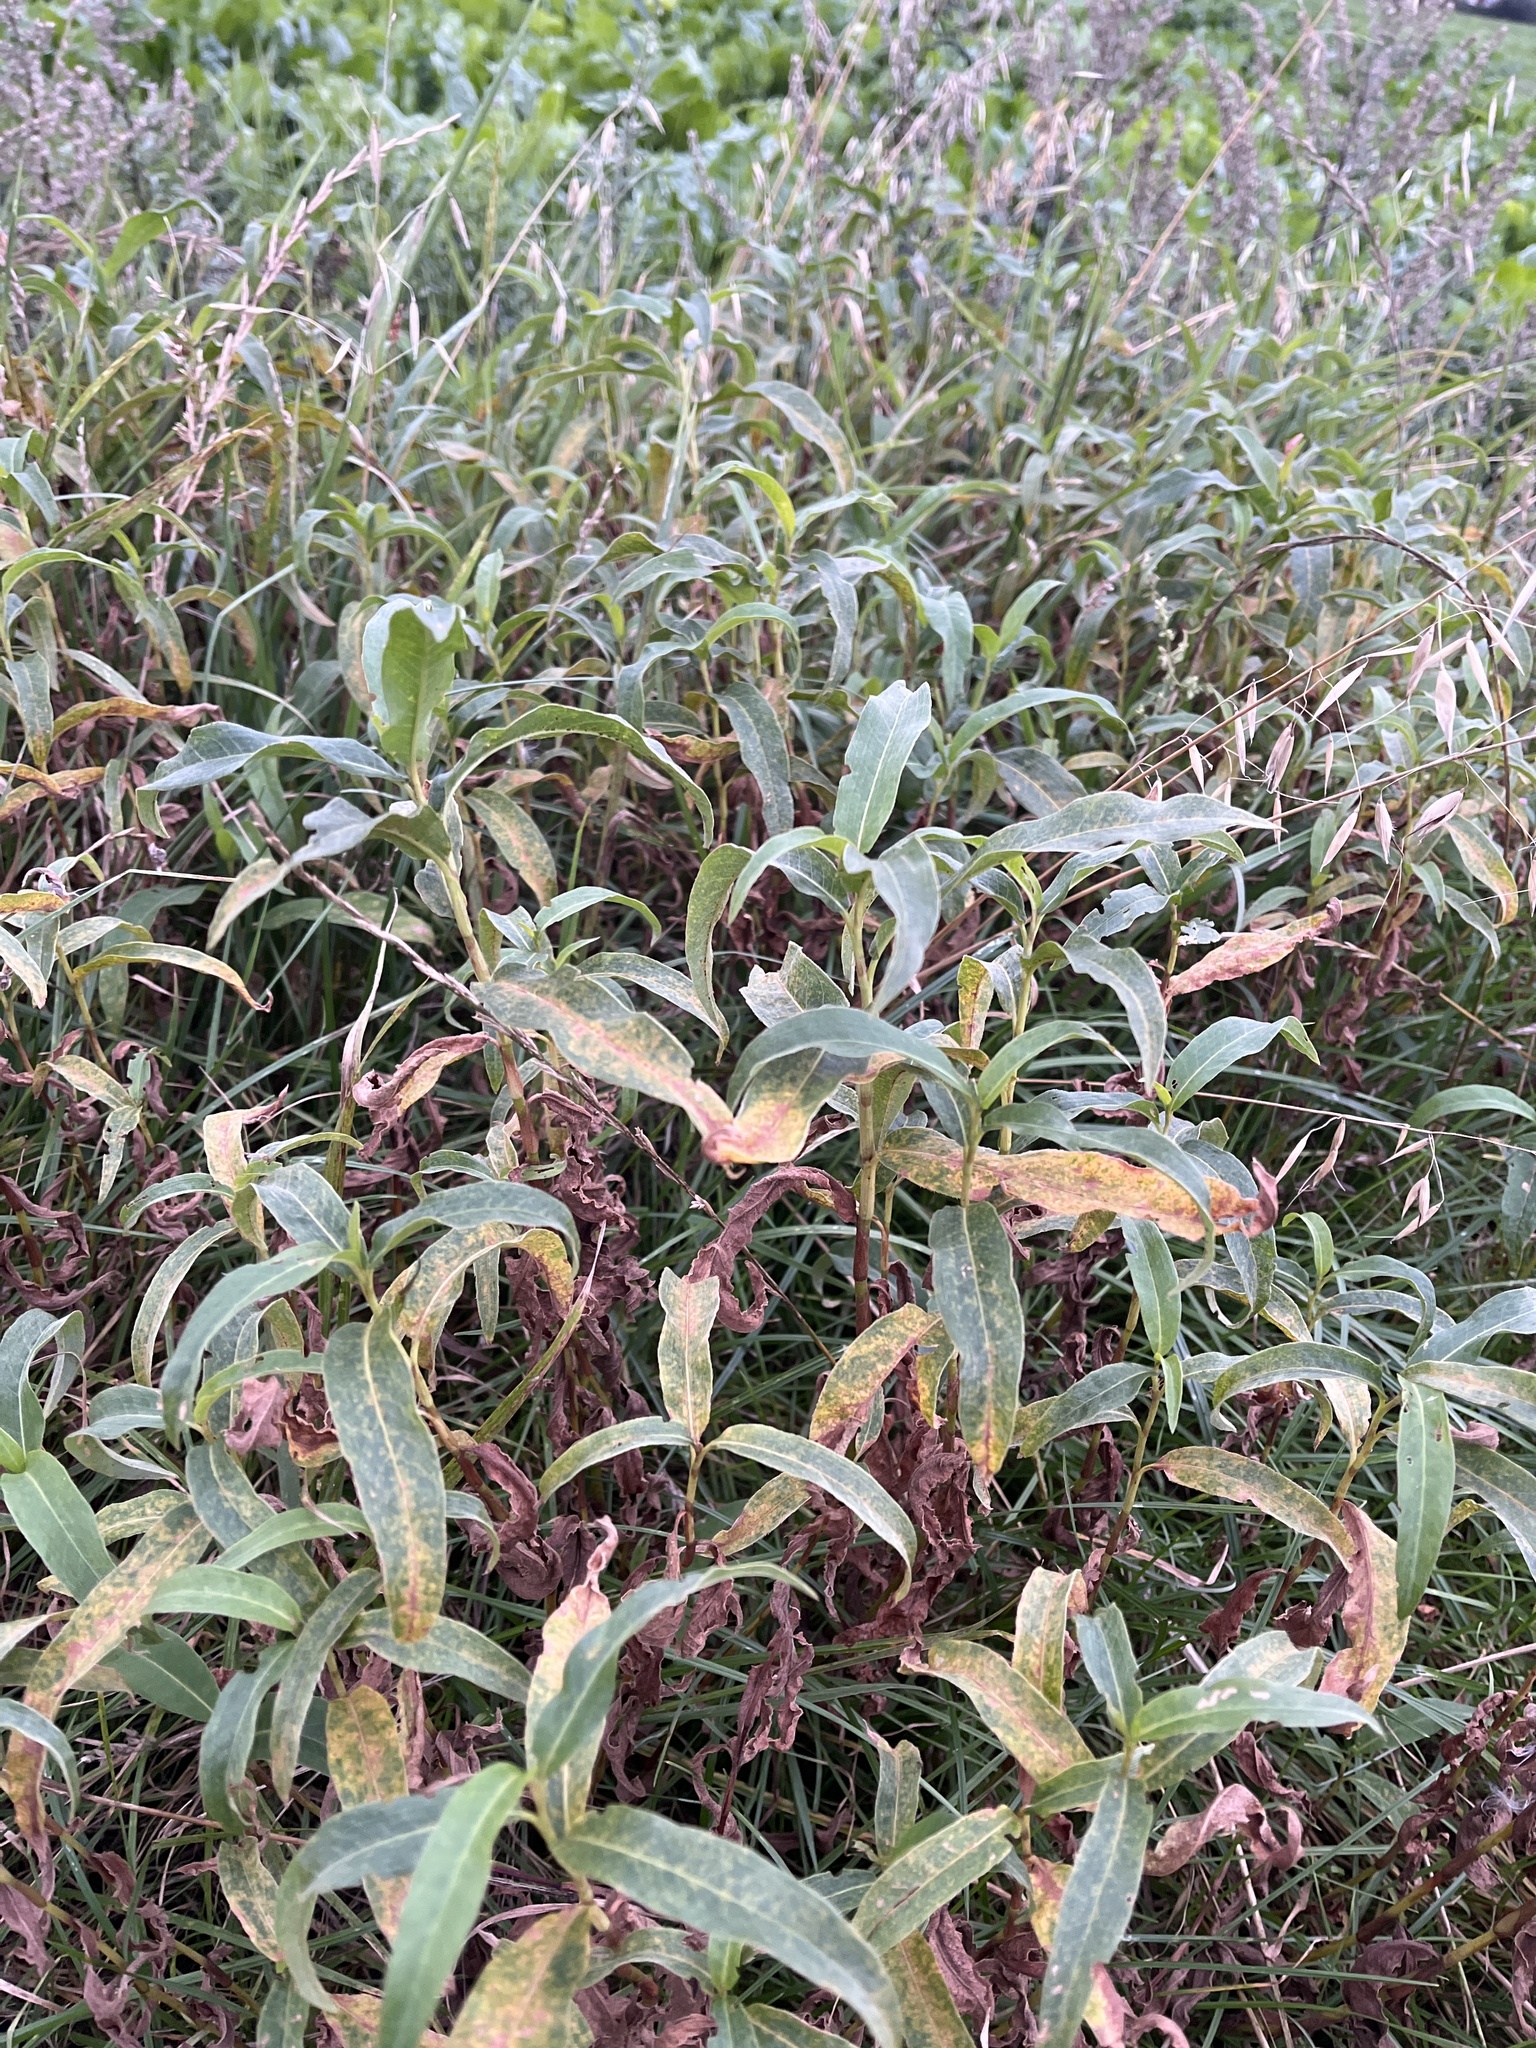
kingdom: Plantae
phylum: Tracheophyta
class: Magnoliopsida
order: Caryophyllales
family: Polygonaceae
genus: Persicaria
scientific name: Persicaria amphibia
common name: Amphibious bistort
